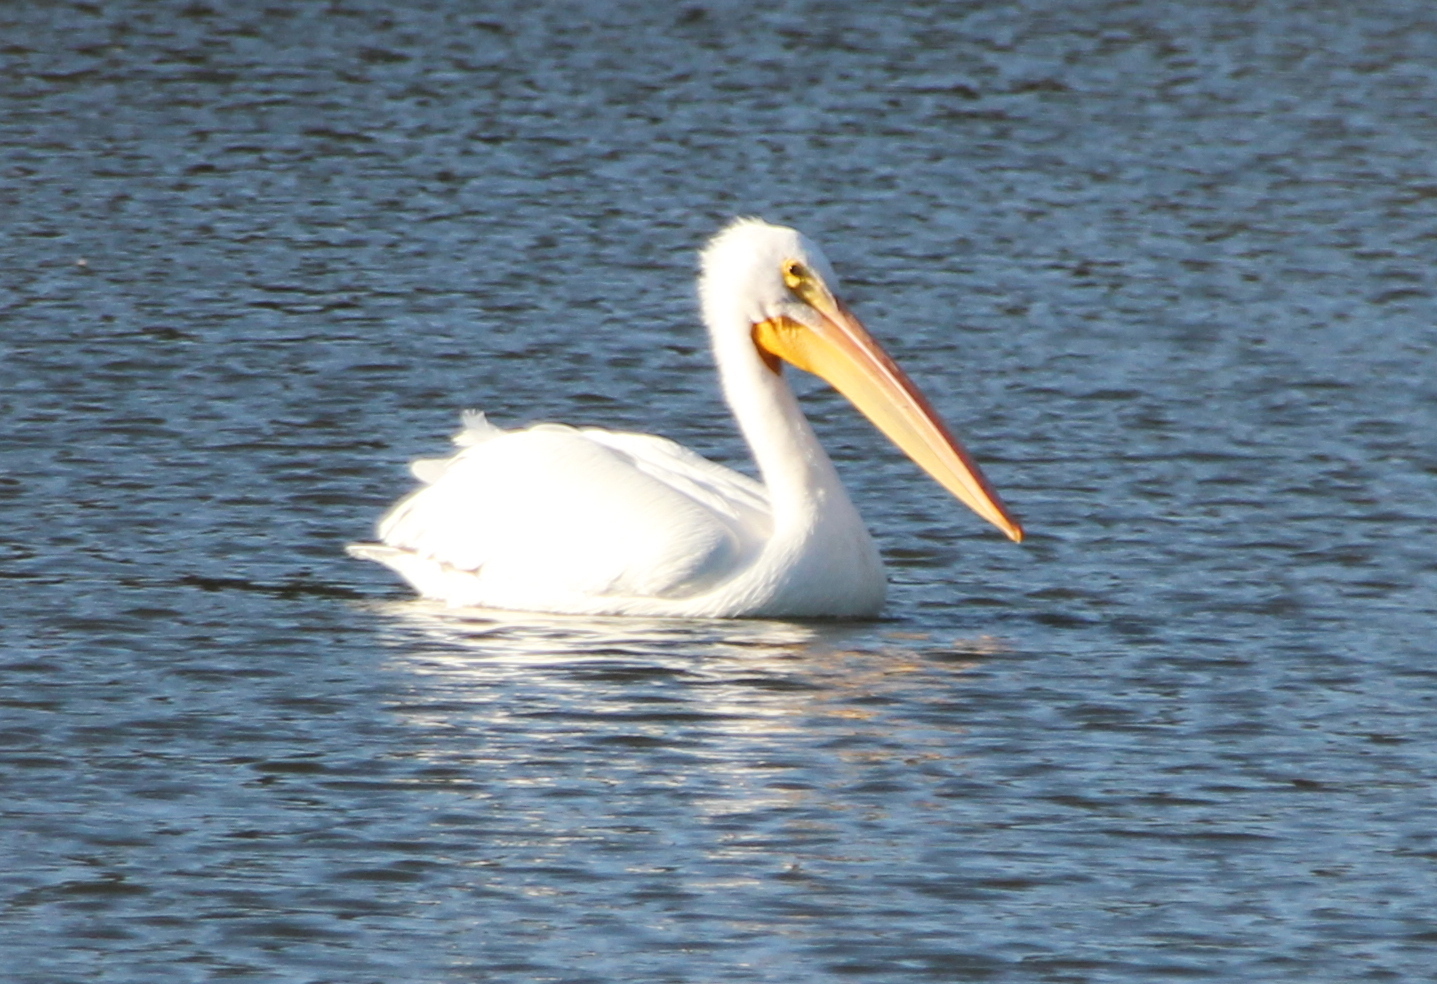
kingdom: Animalia
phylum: Chordata
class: Aves
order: Pelecaniformes
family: Pelecanidae
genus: Pelecanus
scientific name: Pelecanus erythrorhynchos
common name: American white pelican
